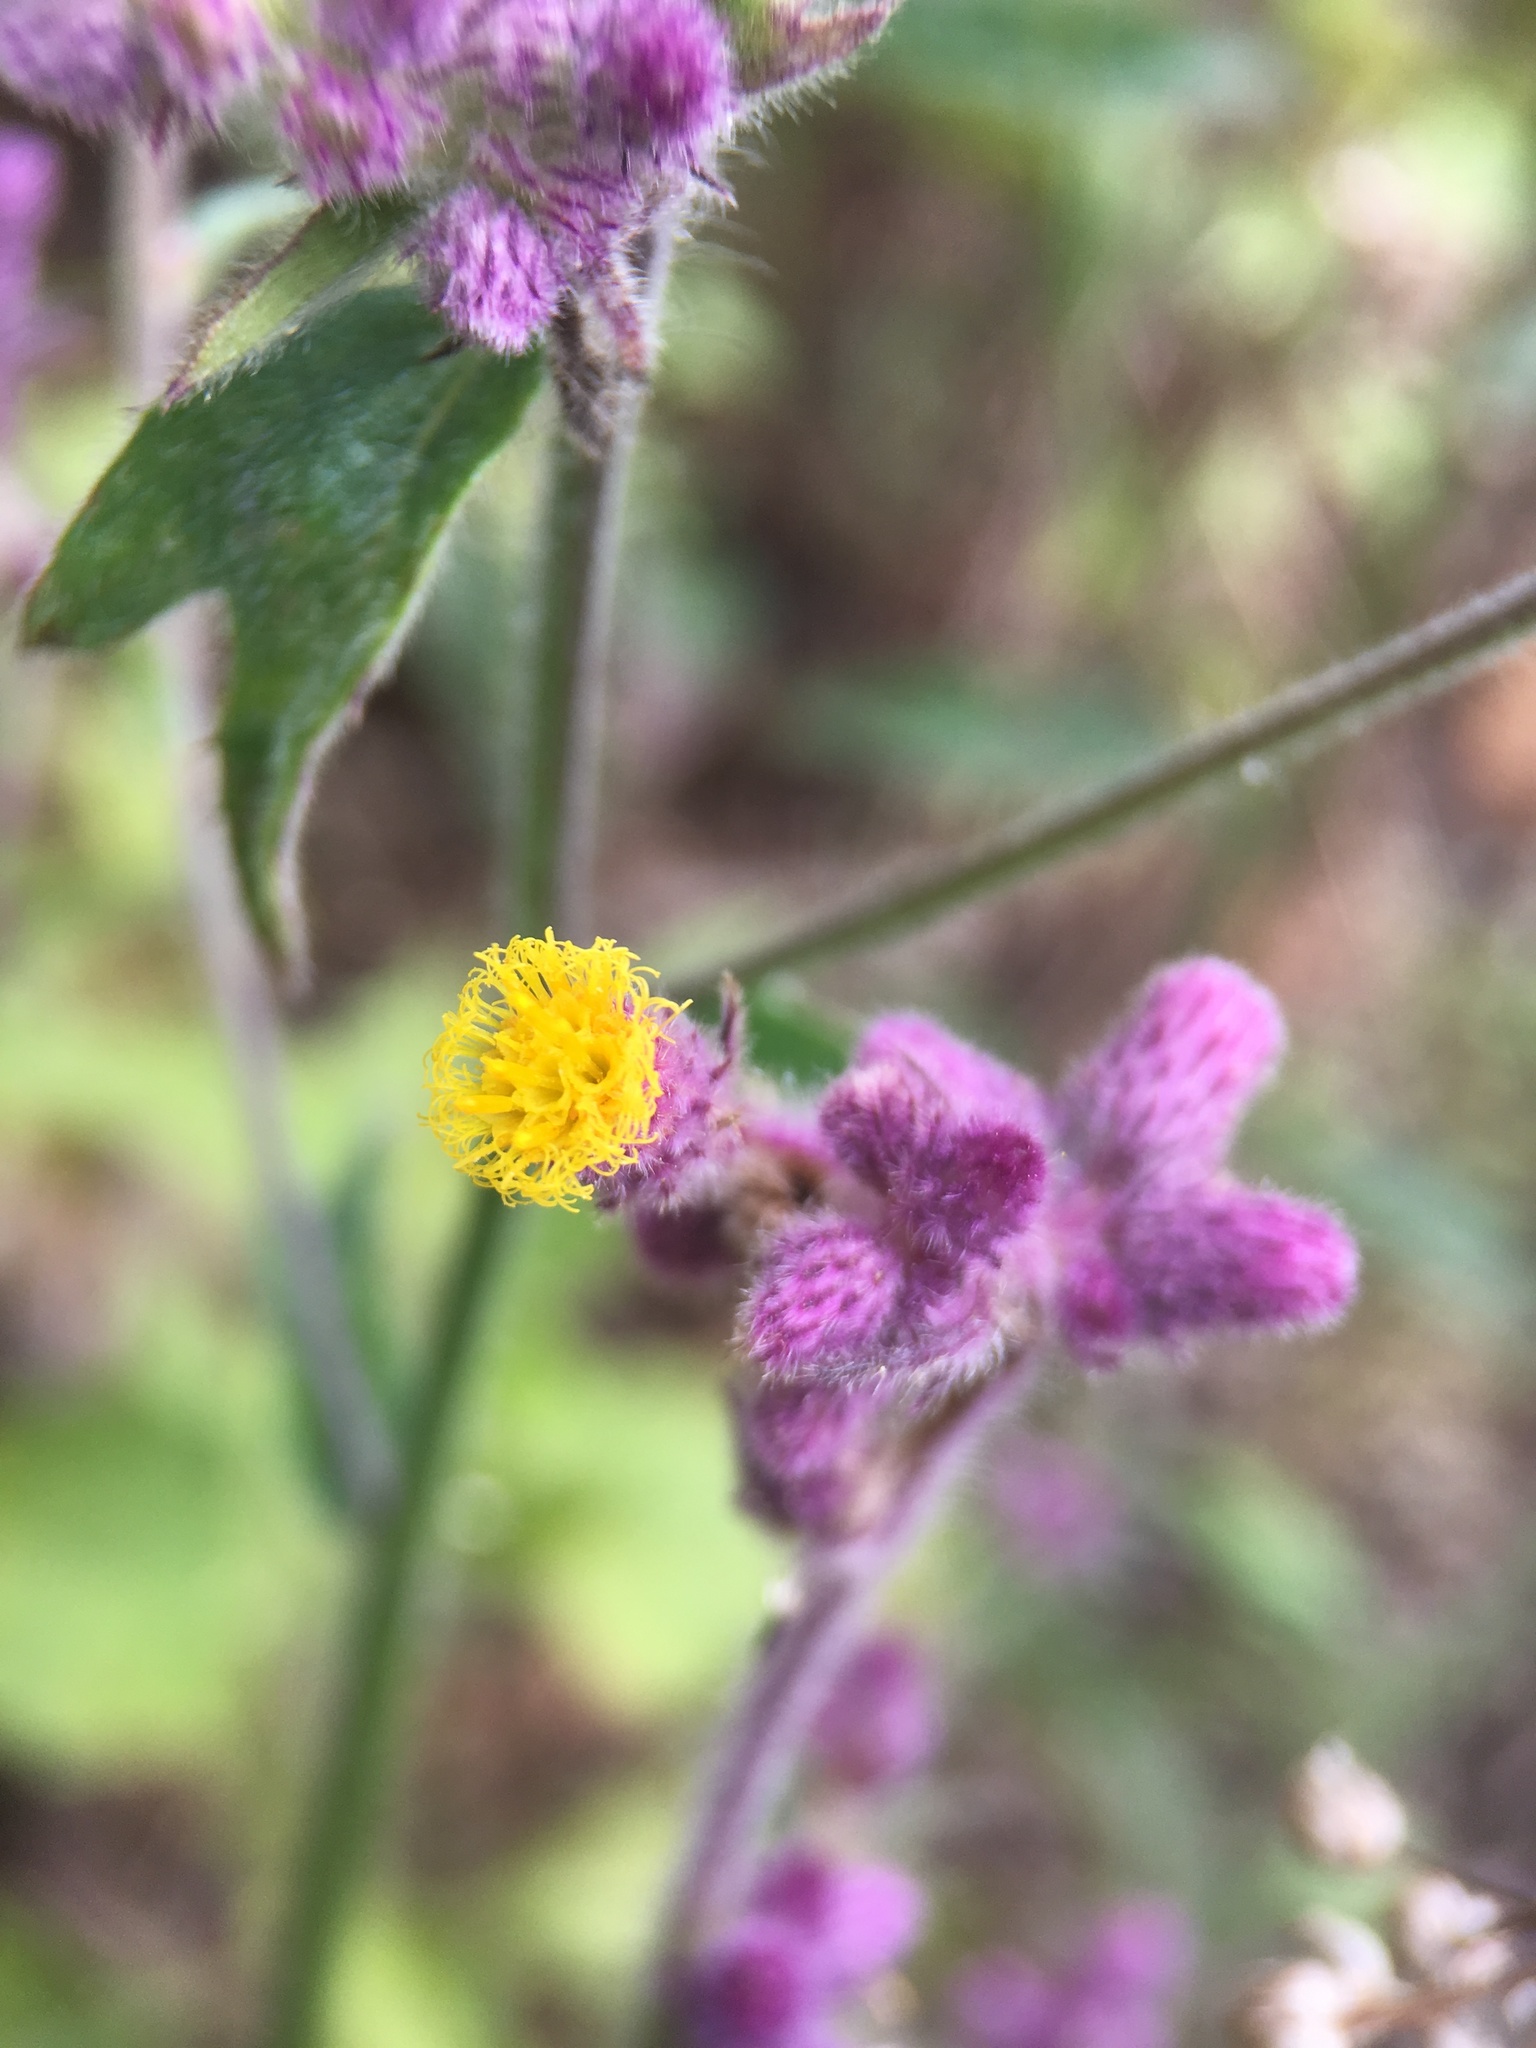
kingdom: Plantae
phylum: Tracheophyta
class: Magnoliopsida
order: Asterales
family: Asteraceae
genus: Blumea
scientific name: Blumea fistulosa
